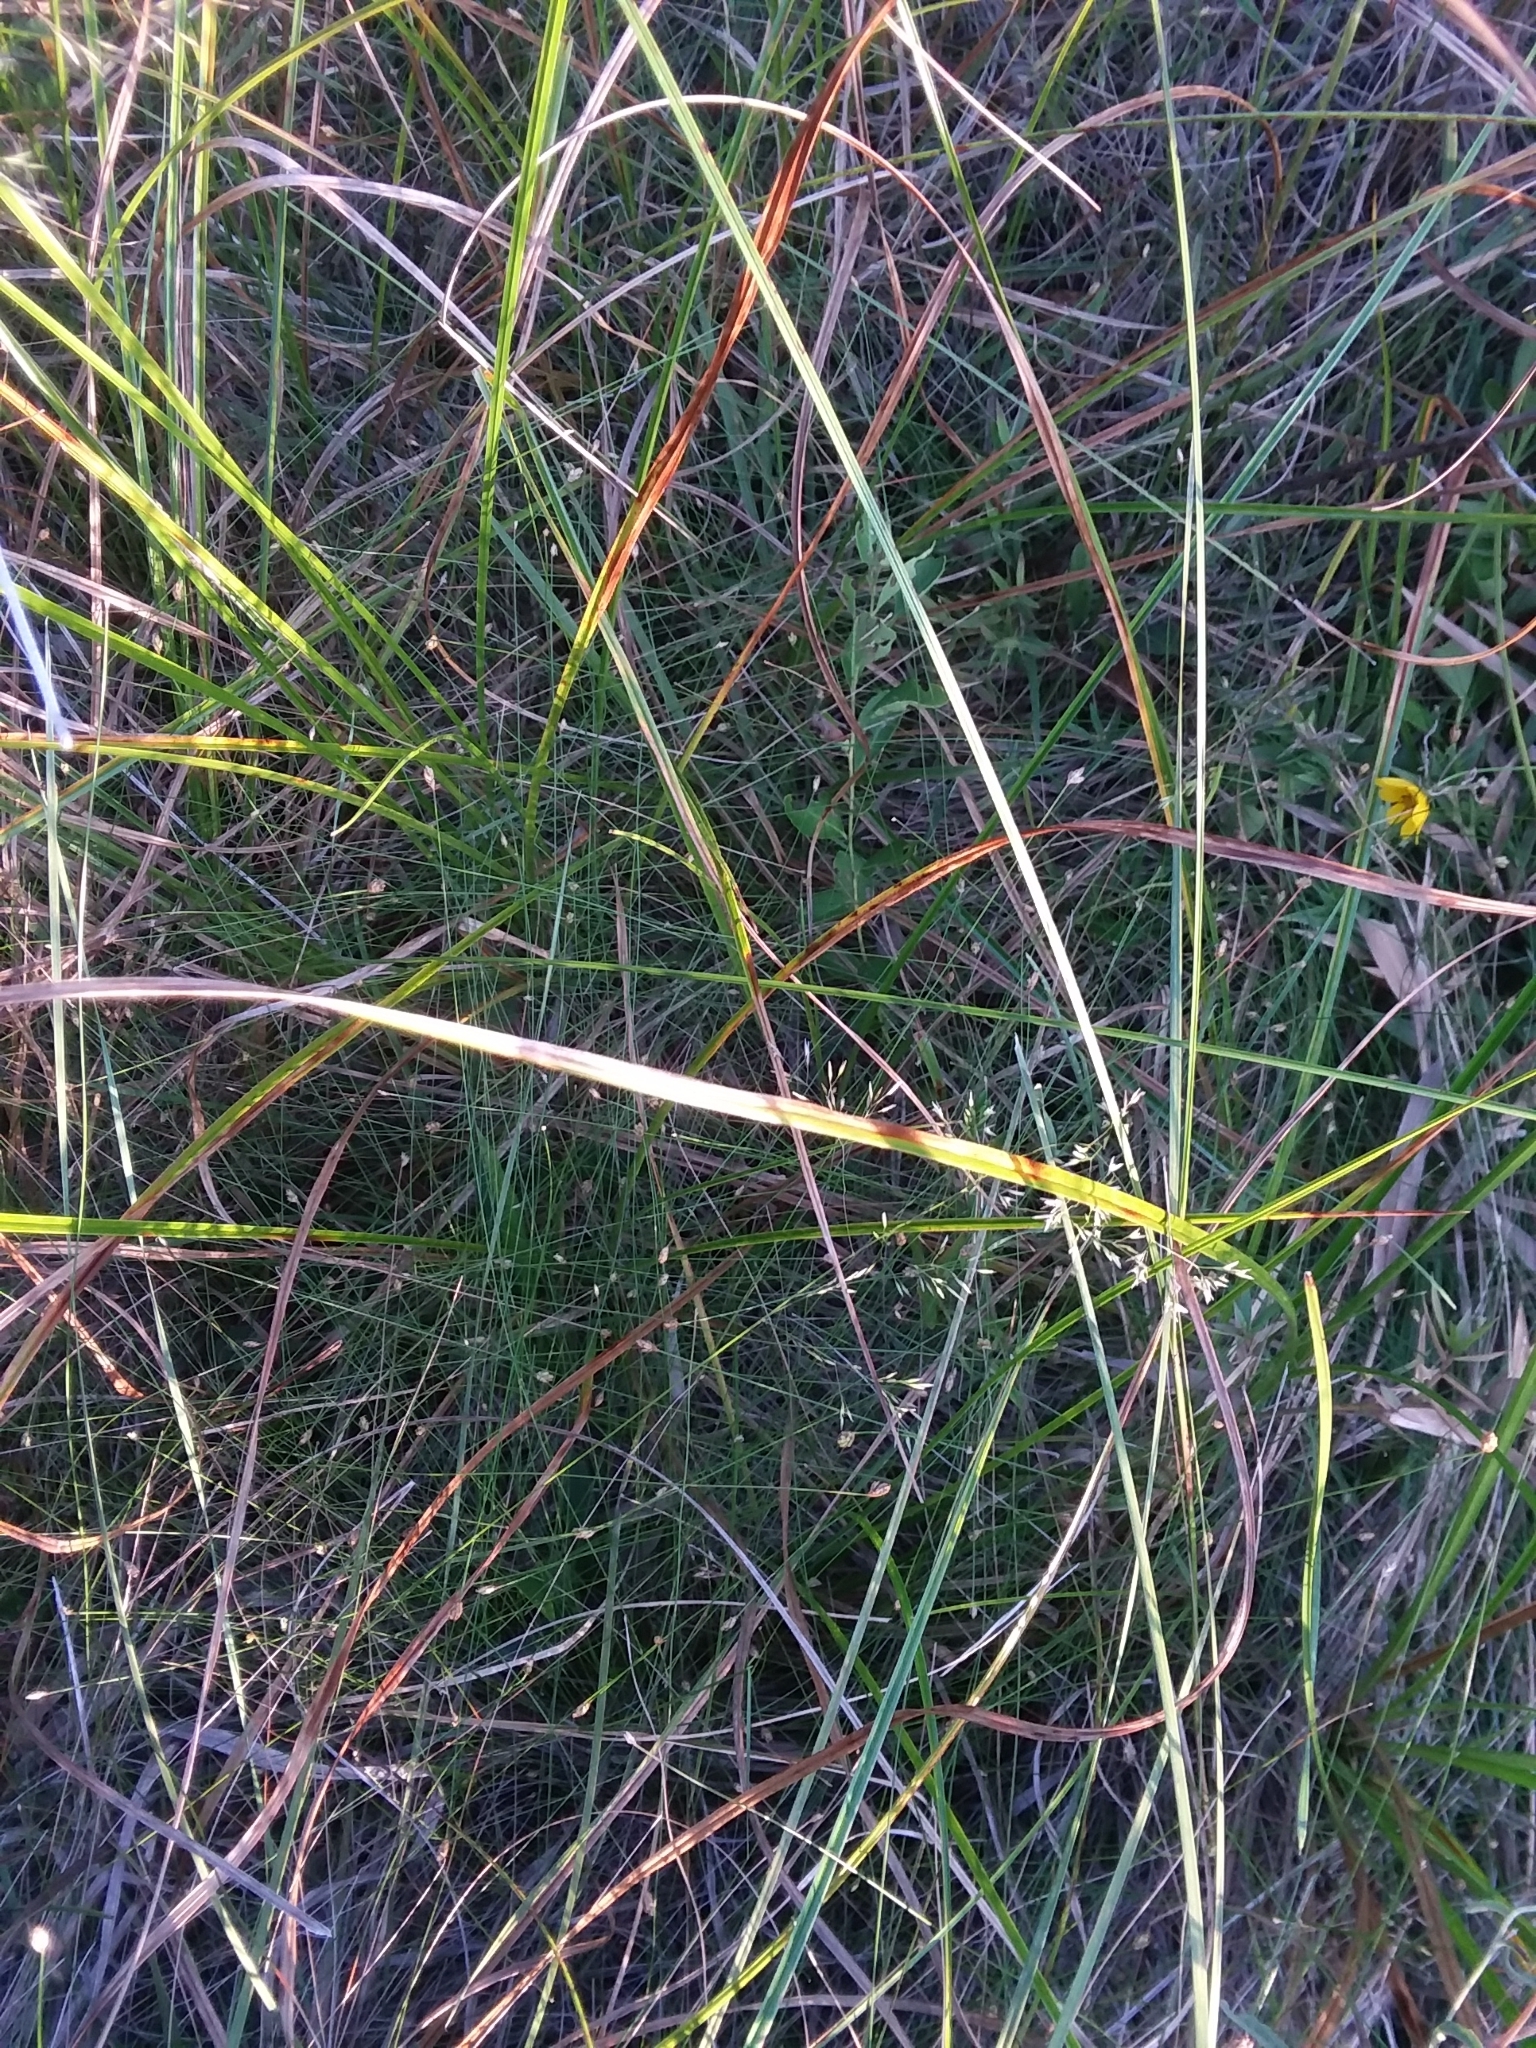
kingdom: Plantae
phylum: Tracheophyta
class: Liliopsida
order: Poales
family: Poaceae
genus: Agrostis
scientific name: Agrostis perennans
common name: Autumn bent
